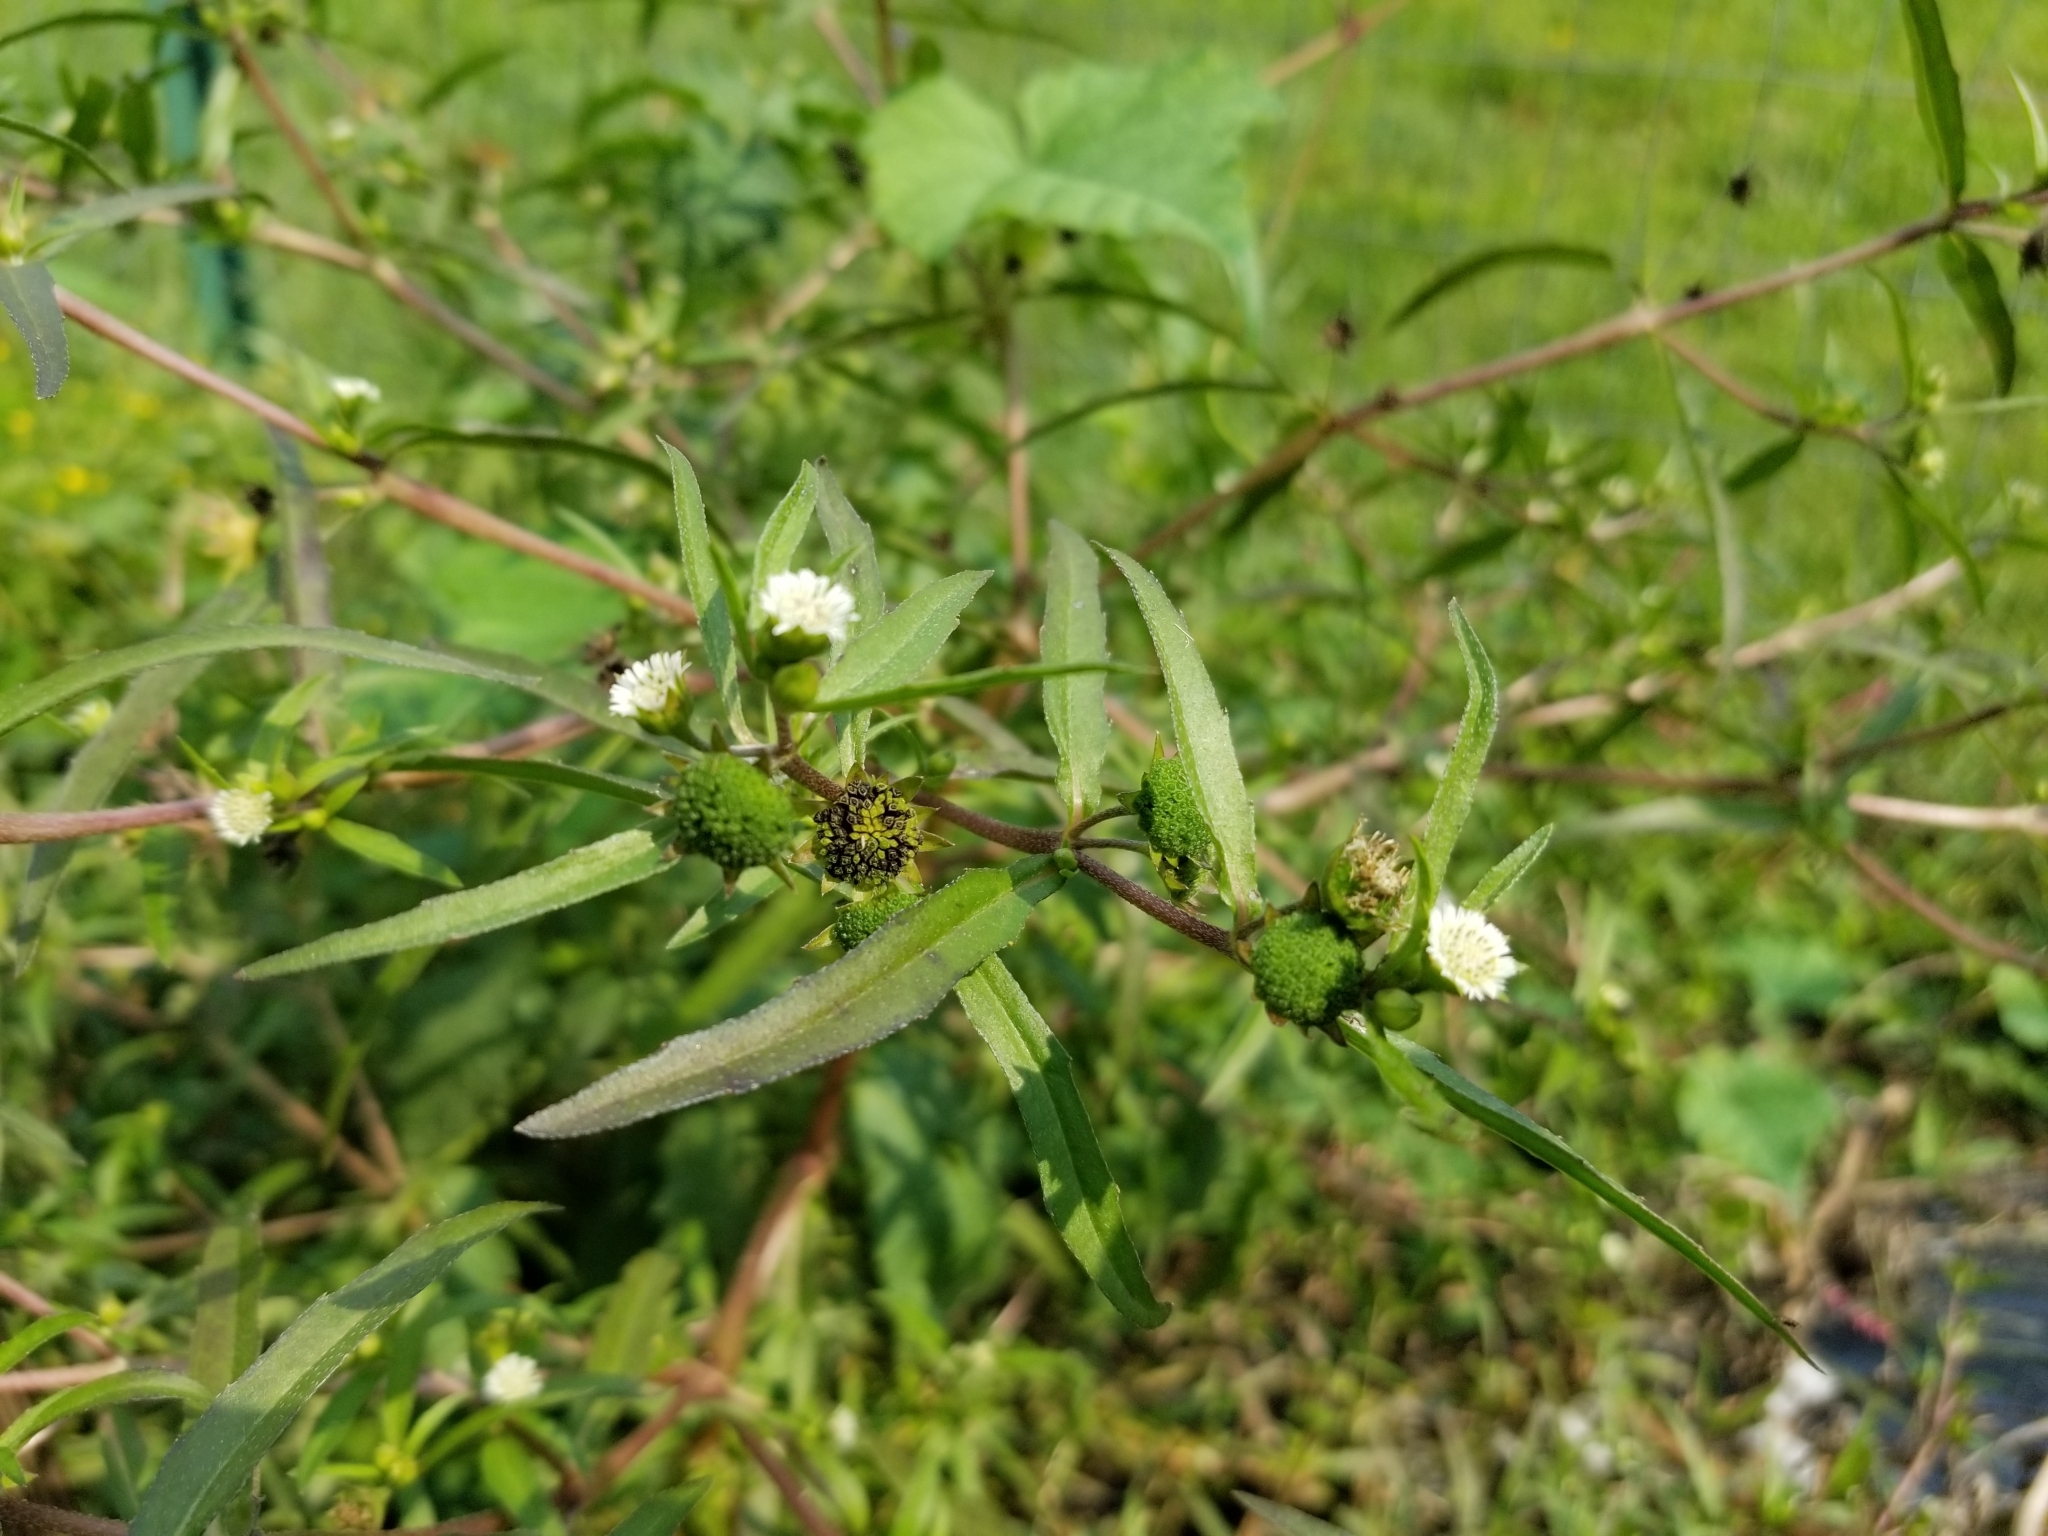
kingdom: Plantae
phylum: Tracheophyta
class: Magnoliopsida
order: Asterales
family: Asteraceae
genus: Eclipta
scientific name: Eclipta prostrata
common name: False daisy
